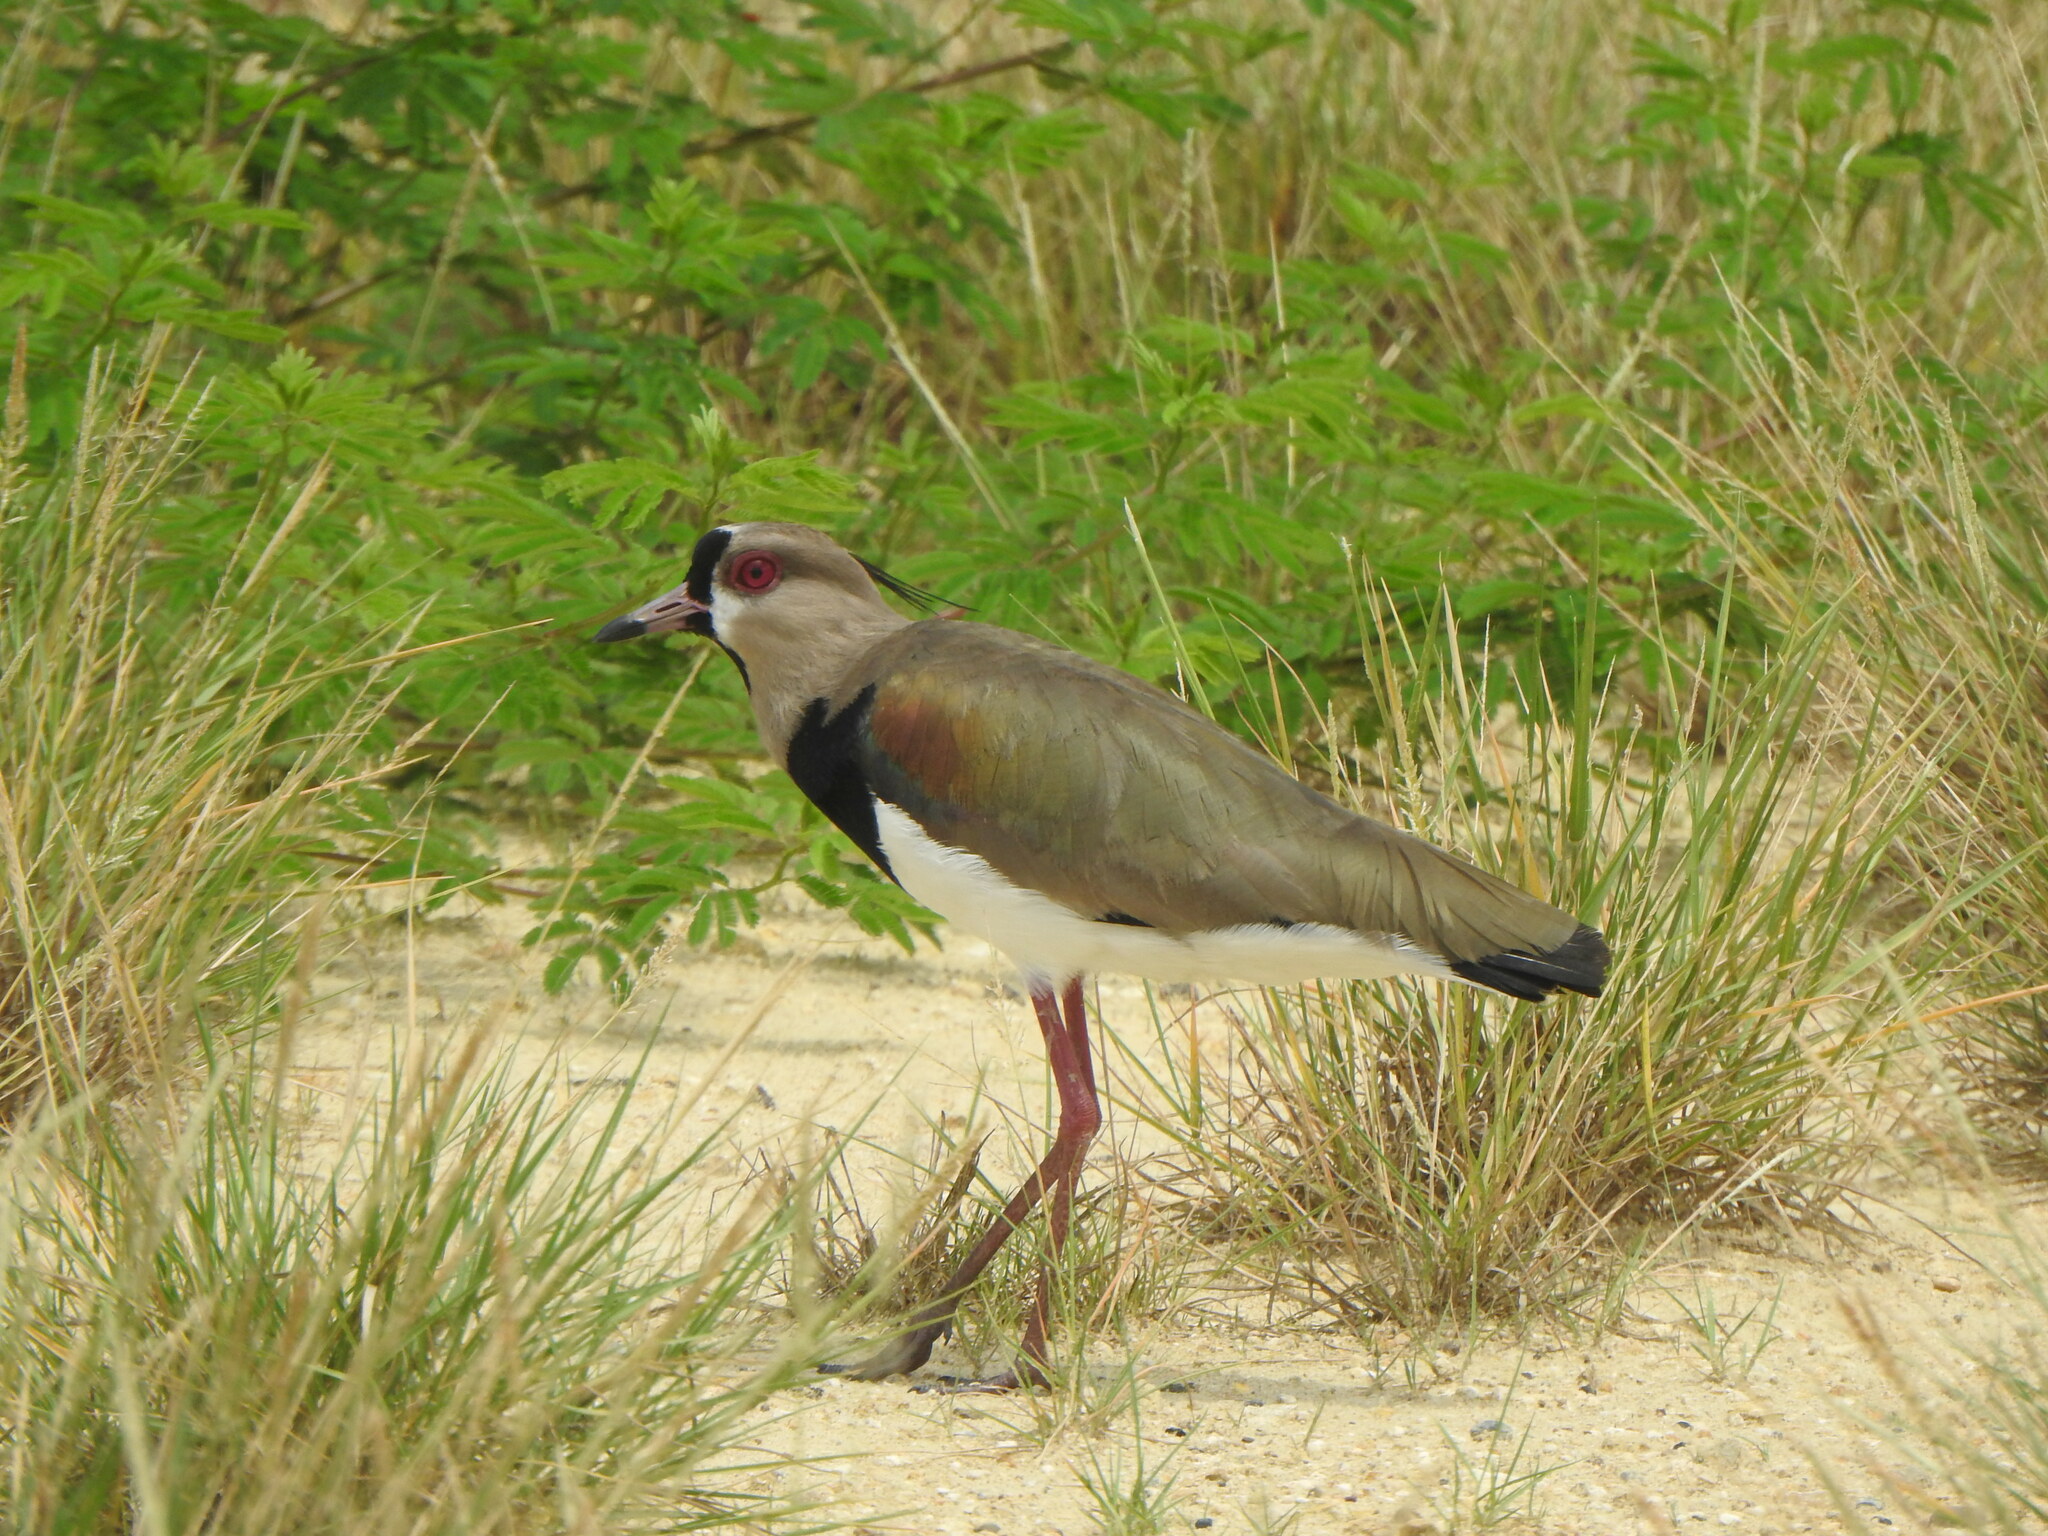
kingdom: Animalia
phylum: Chordata
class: Aves
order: Charadriiformes
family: Charadriidae
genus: Vanellus
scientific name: Vanellus chilensis
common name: Southern lapwing
